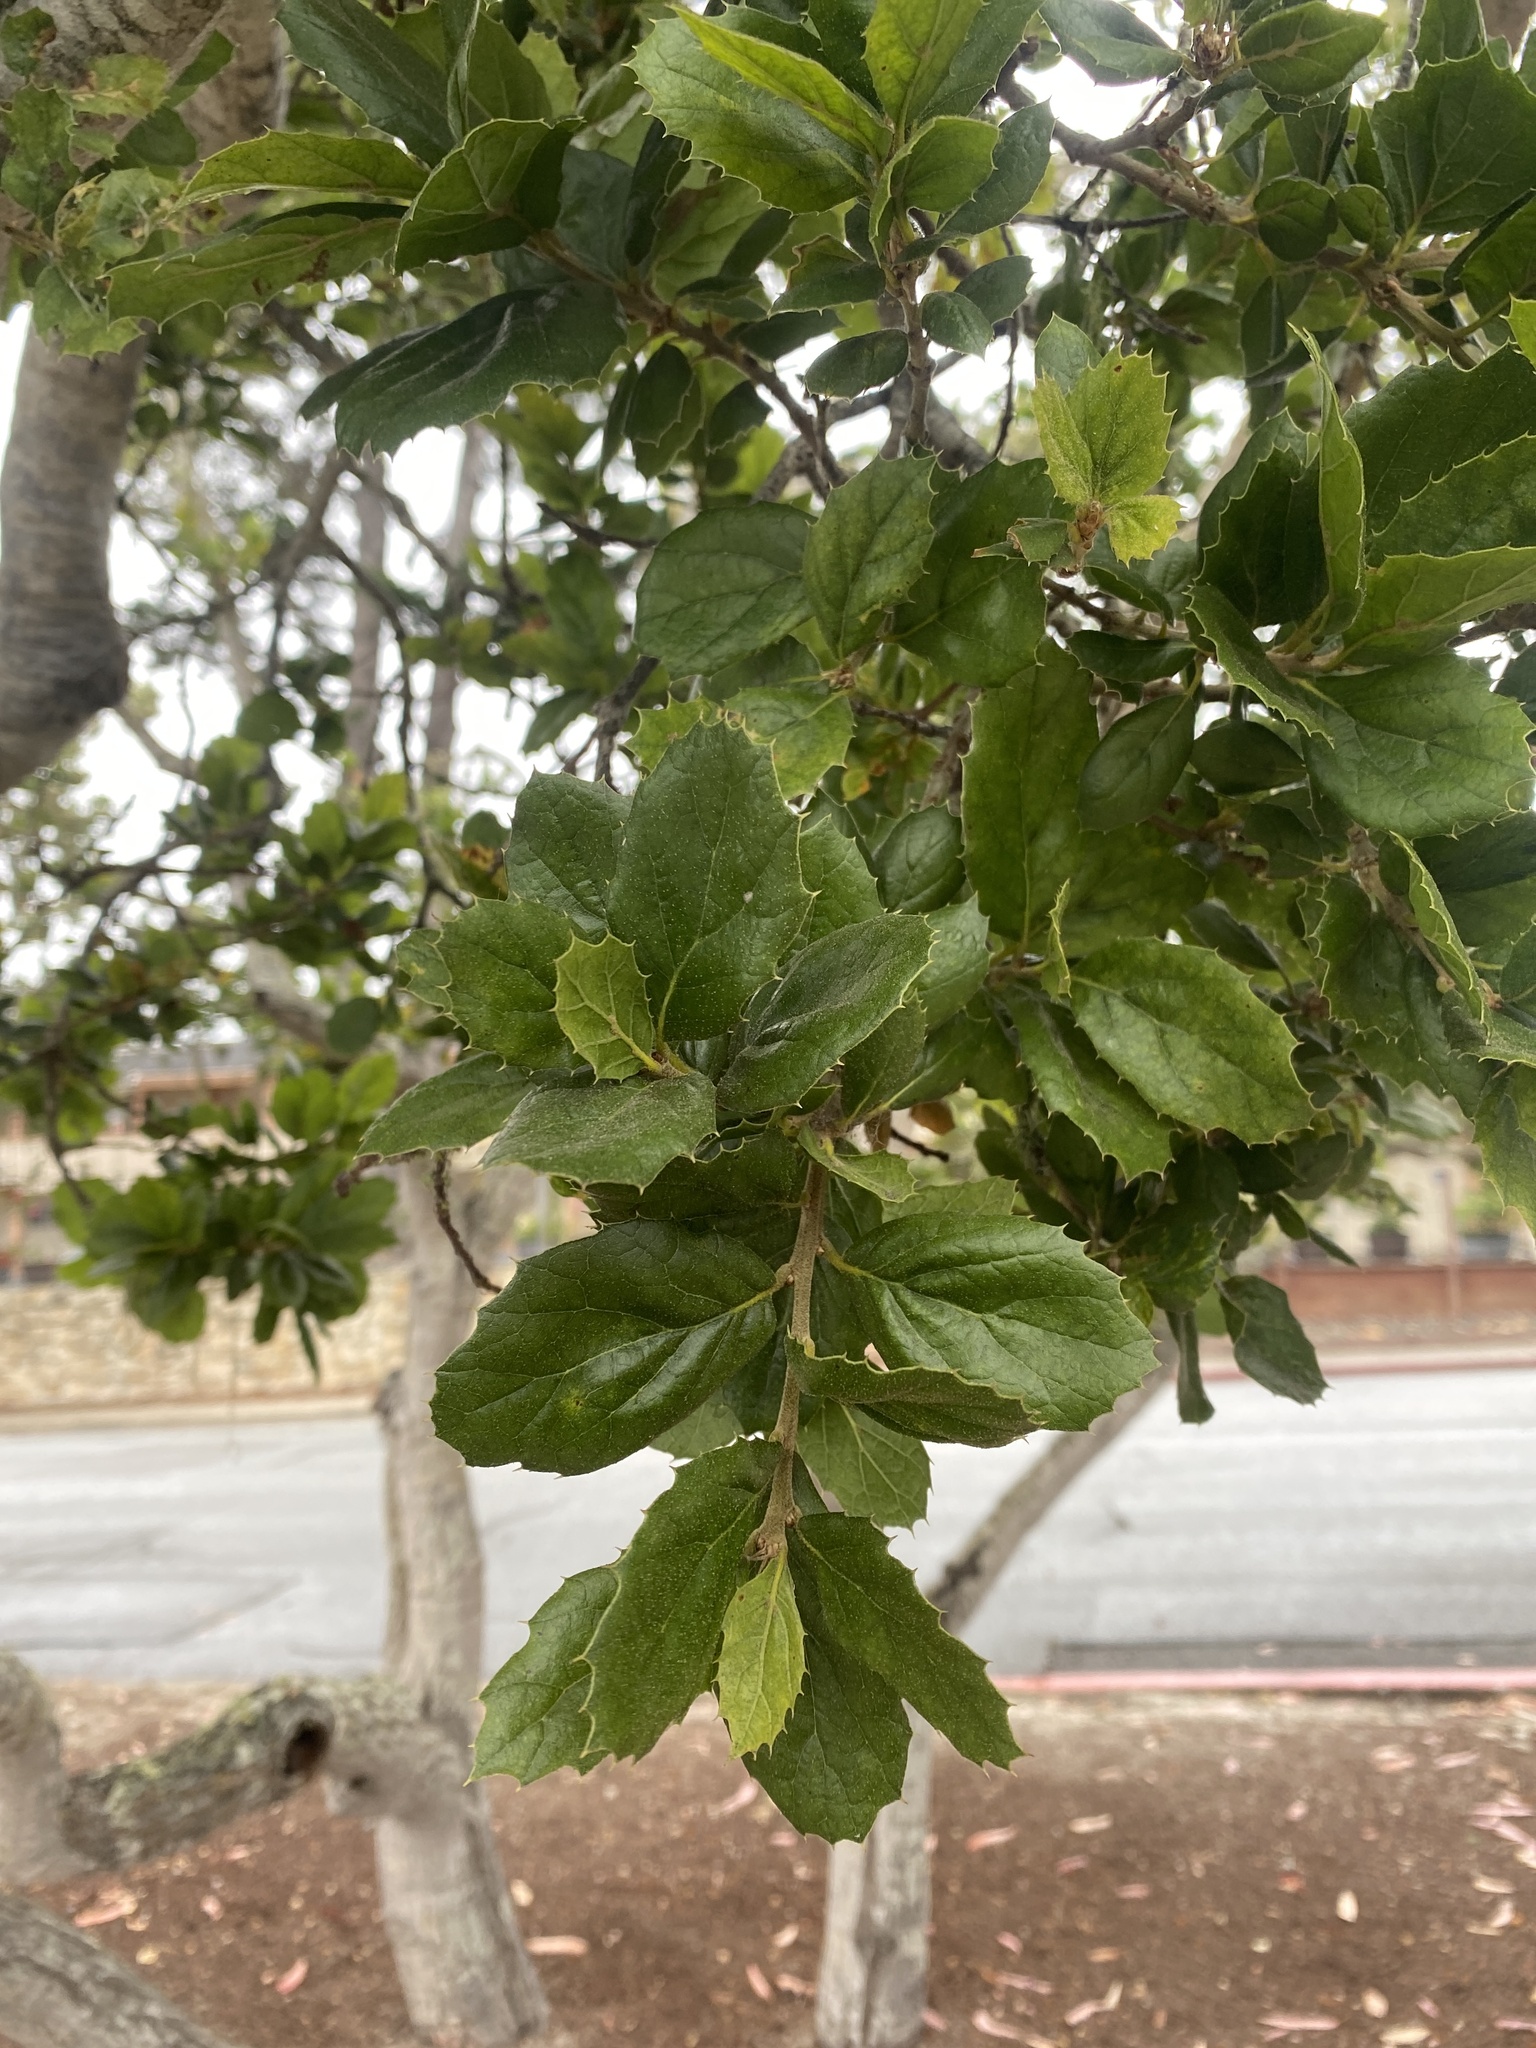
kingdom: Plantae
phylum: Tracheophyta
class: Magnoliopsida
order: Fagales
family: Fagaceae
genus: Quercus
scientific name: Quercus agrifolia
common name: California live oak
